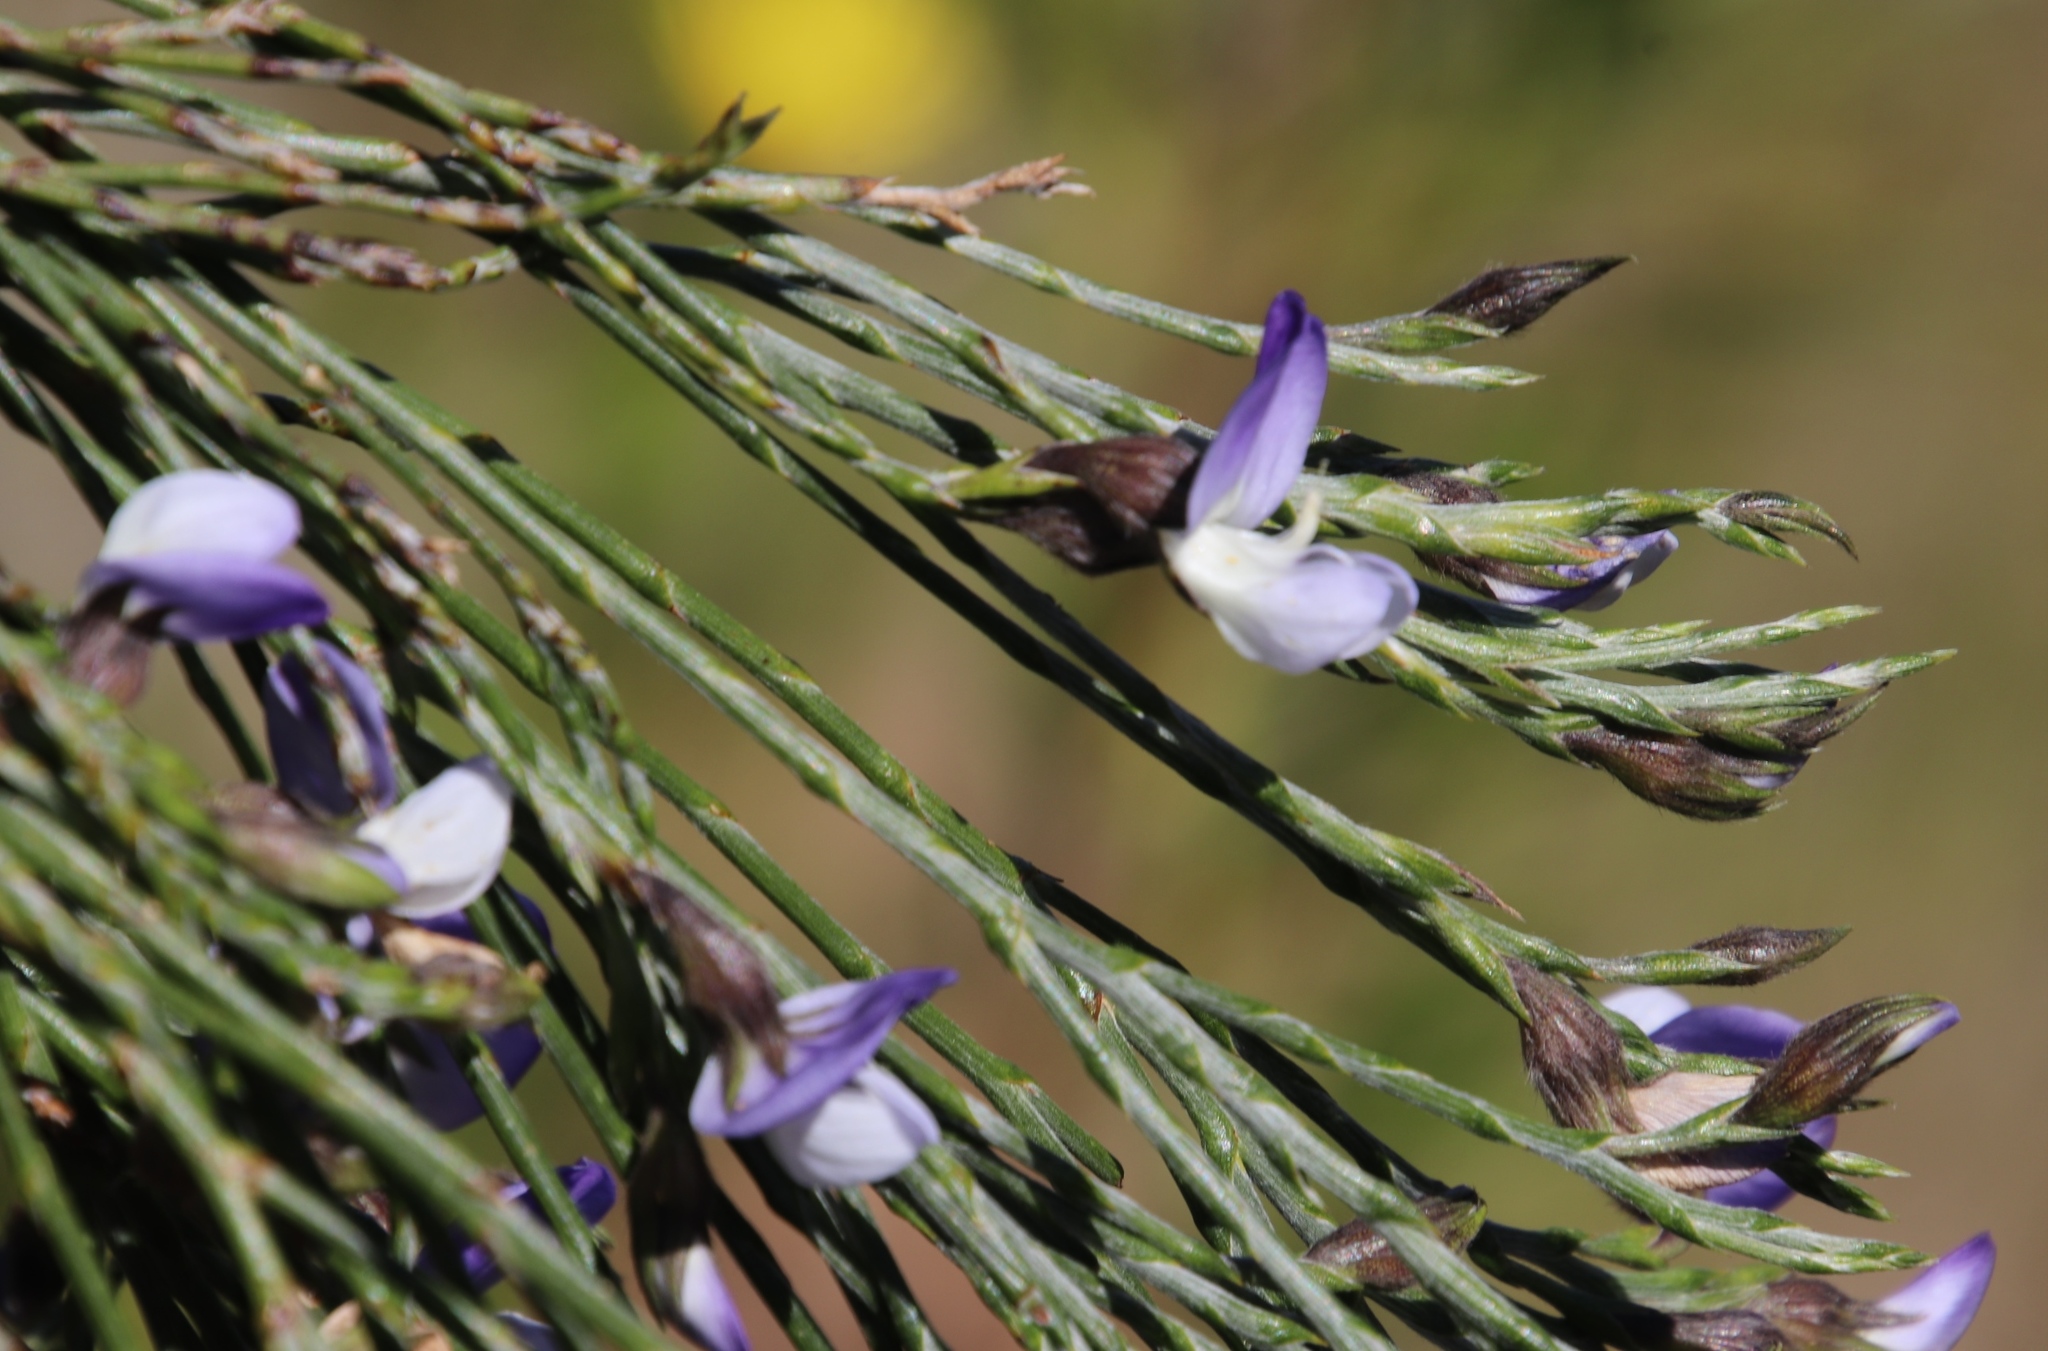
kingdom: Plantae
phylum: Tracheophyta
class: Magnoliopsida
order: Fabales
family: Fabaceae
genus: Psoralea
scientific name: Psoralea pullata
